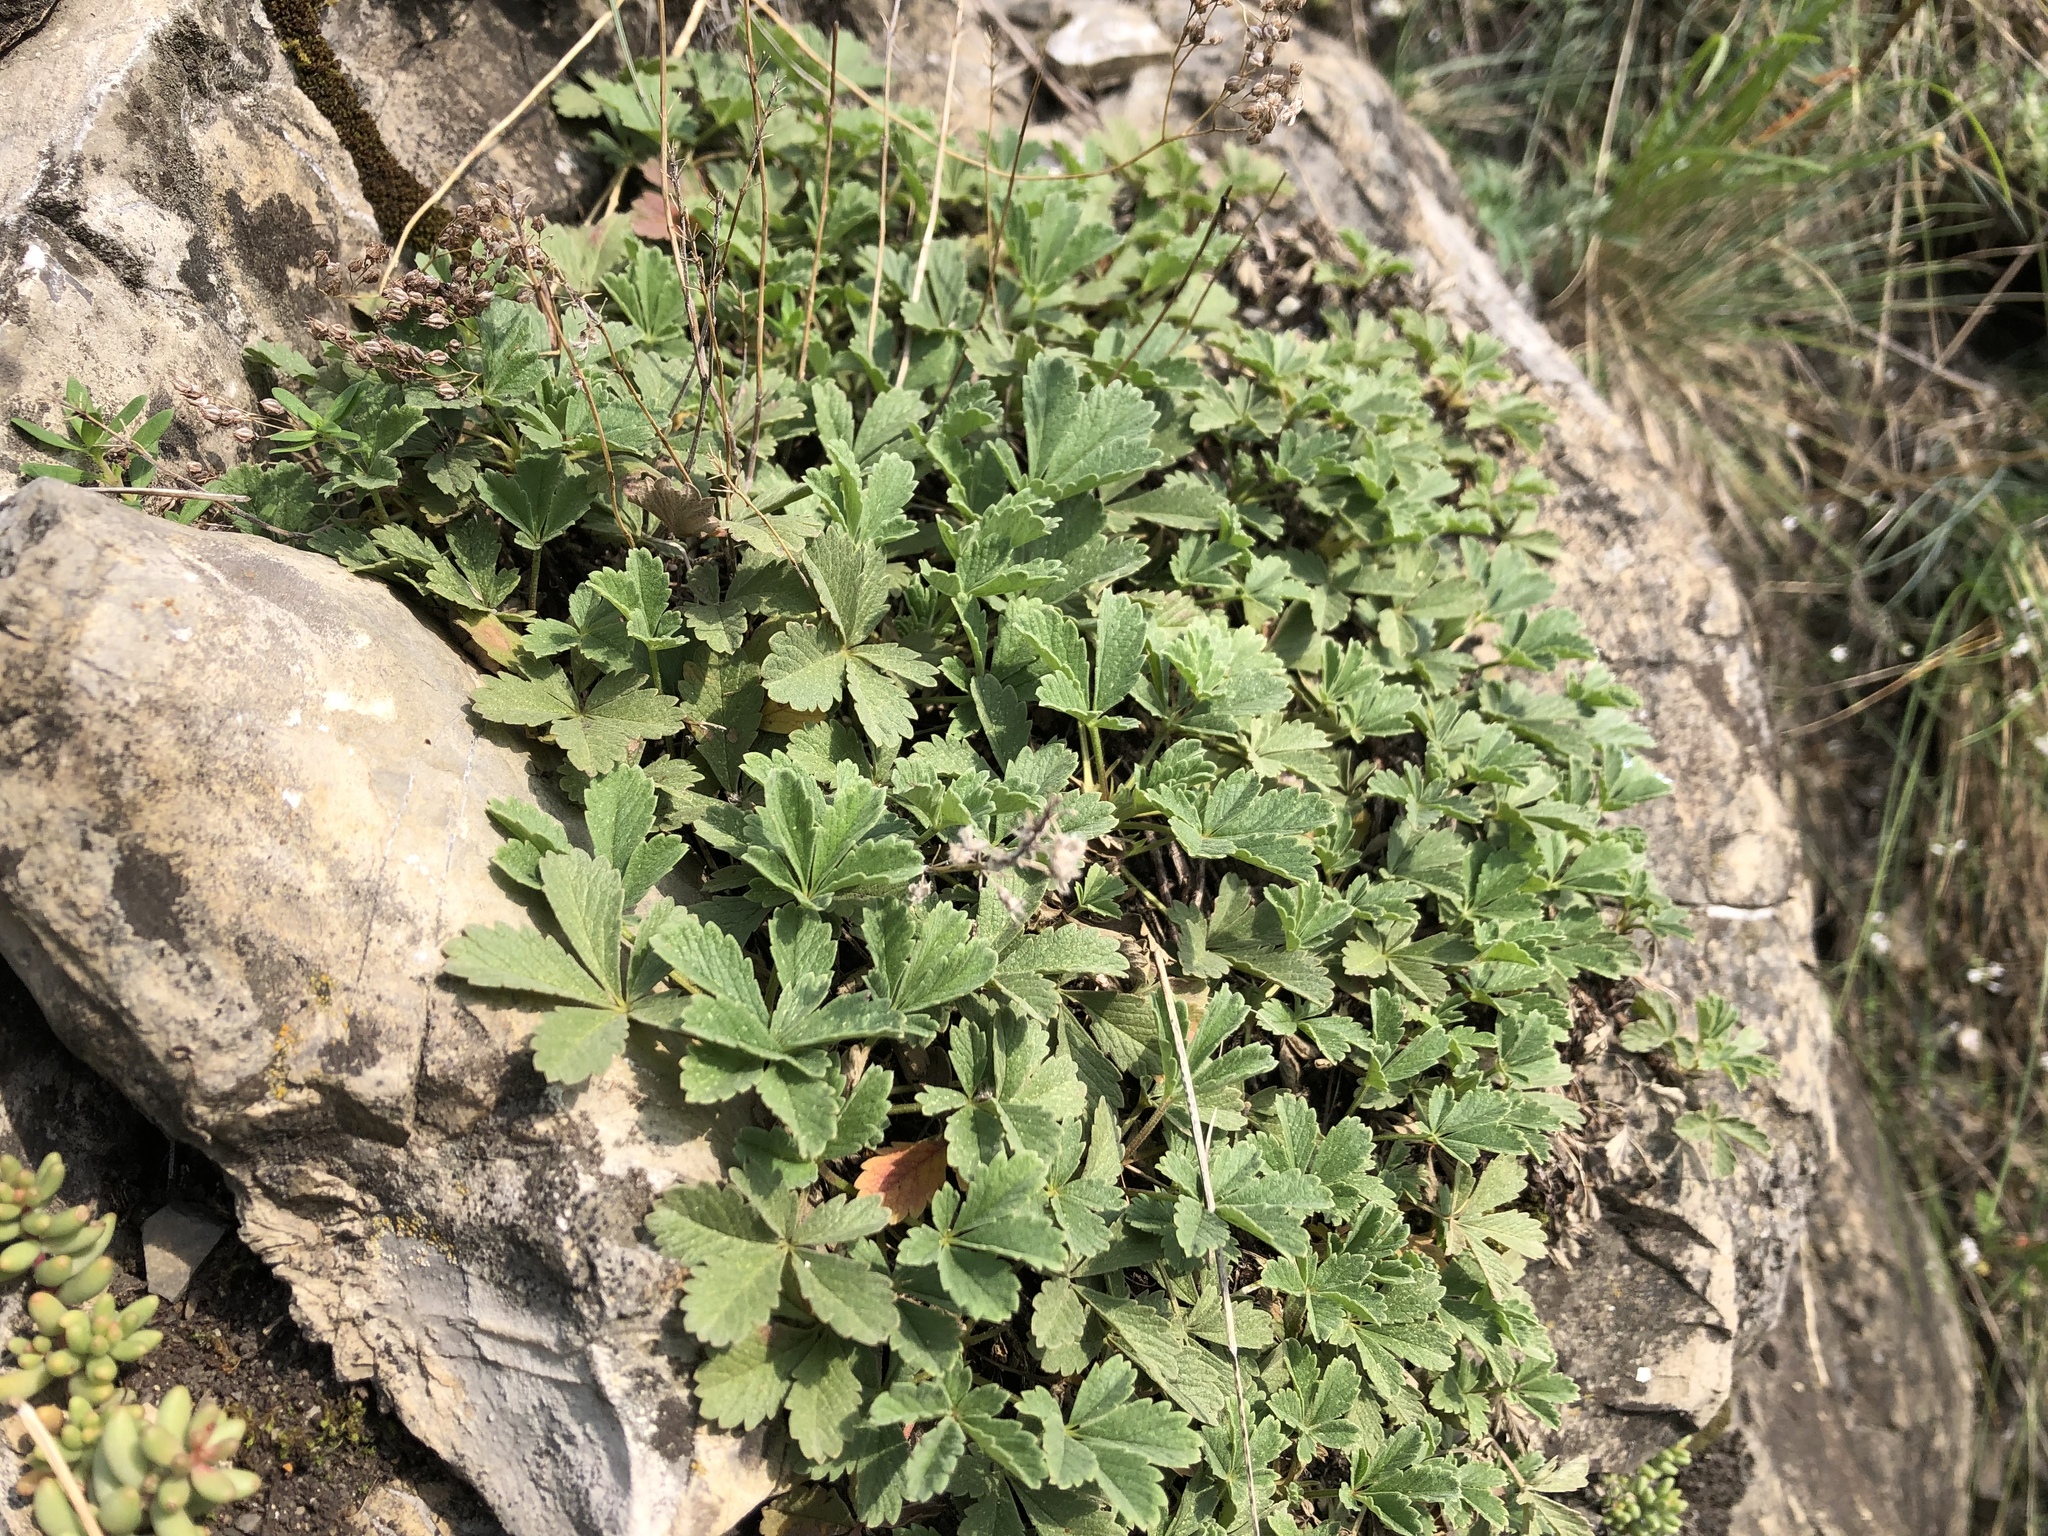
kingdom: Plantae
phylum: Tracheophyta
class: Magnoliopsida
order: Rosales
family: Rosaceae
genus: Potentilla
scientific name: Potentilla incana
